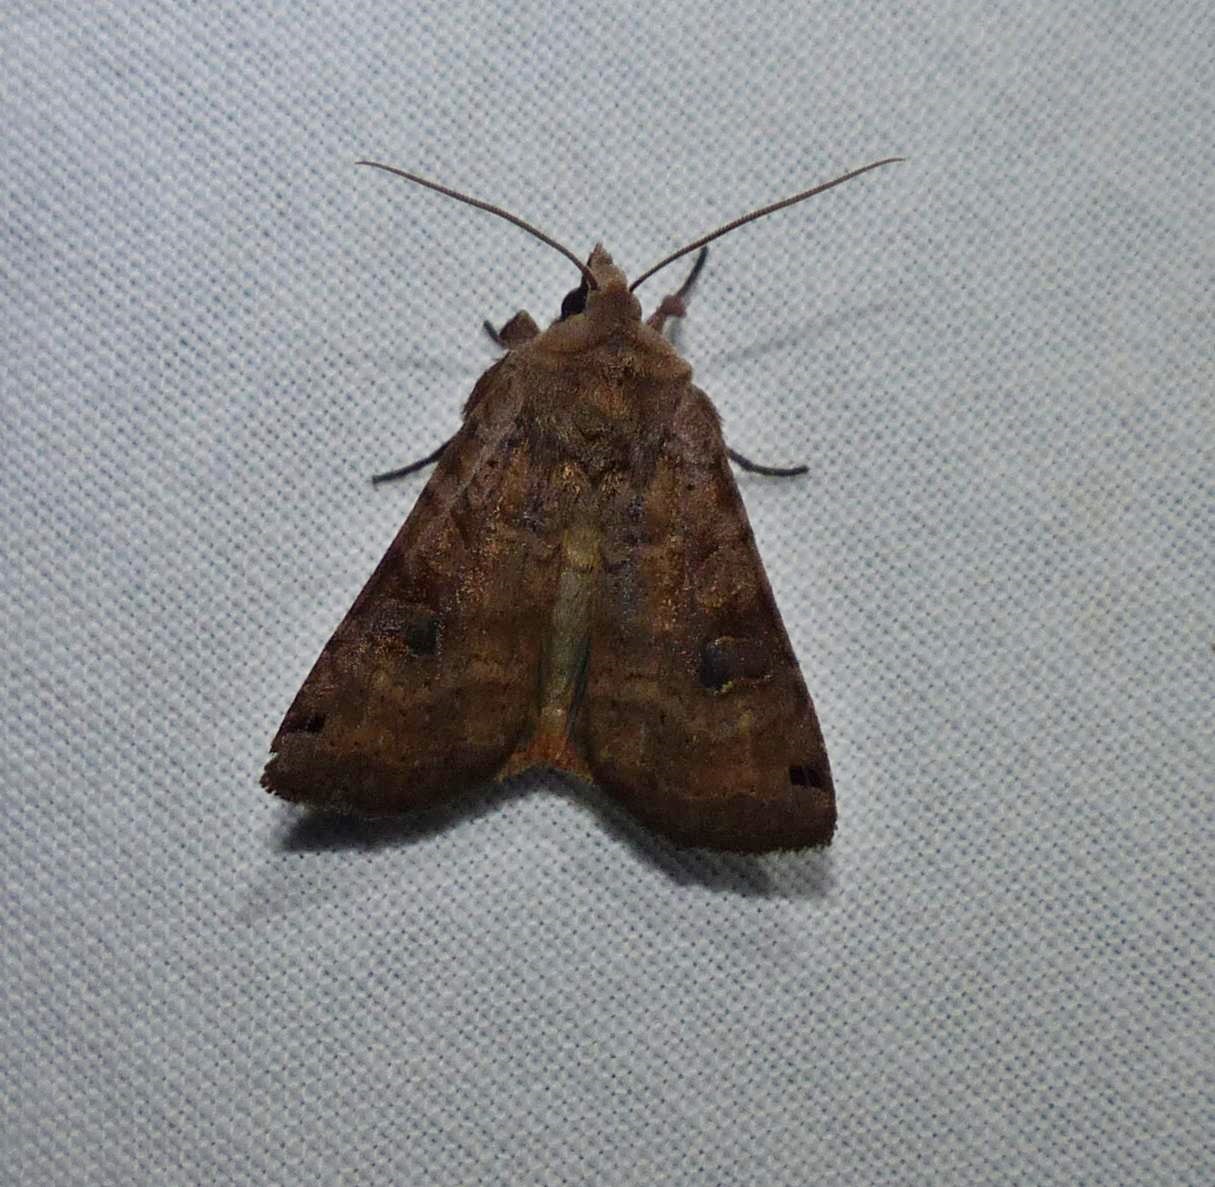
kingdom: Animalia
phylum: Arthropoda
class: Insecta
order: Lepidoptera
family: Noctuidae
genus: Xestia
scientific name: Xestia smithii
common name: Smith's dart
